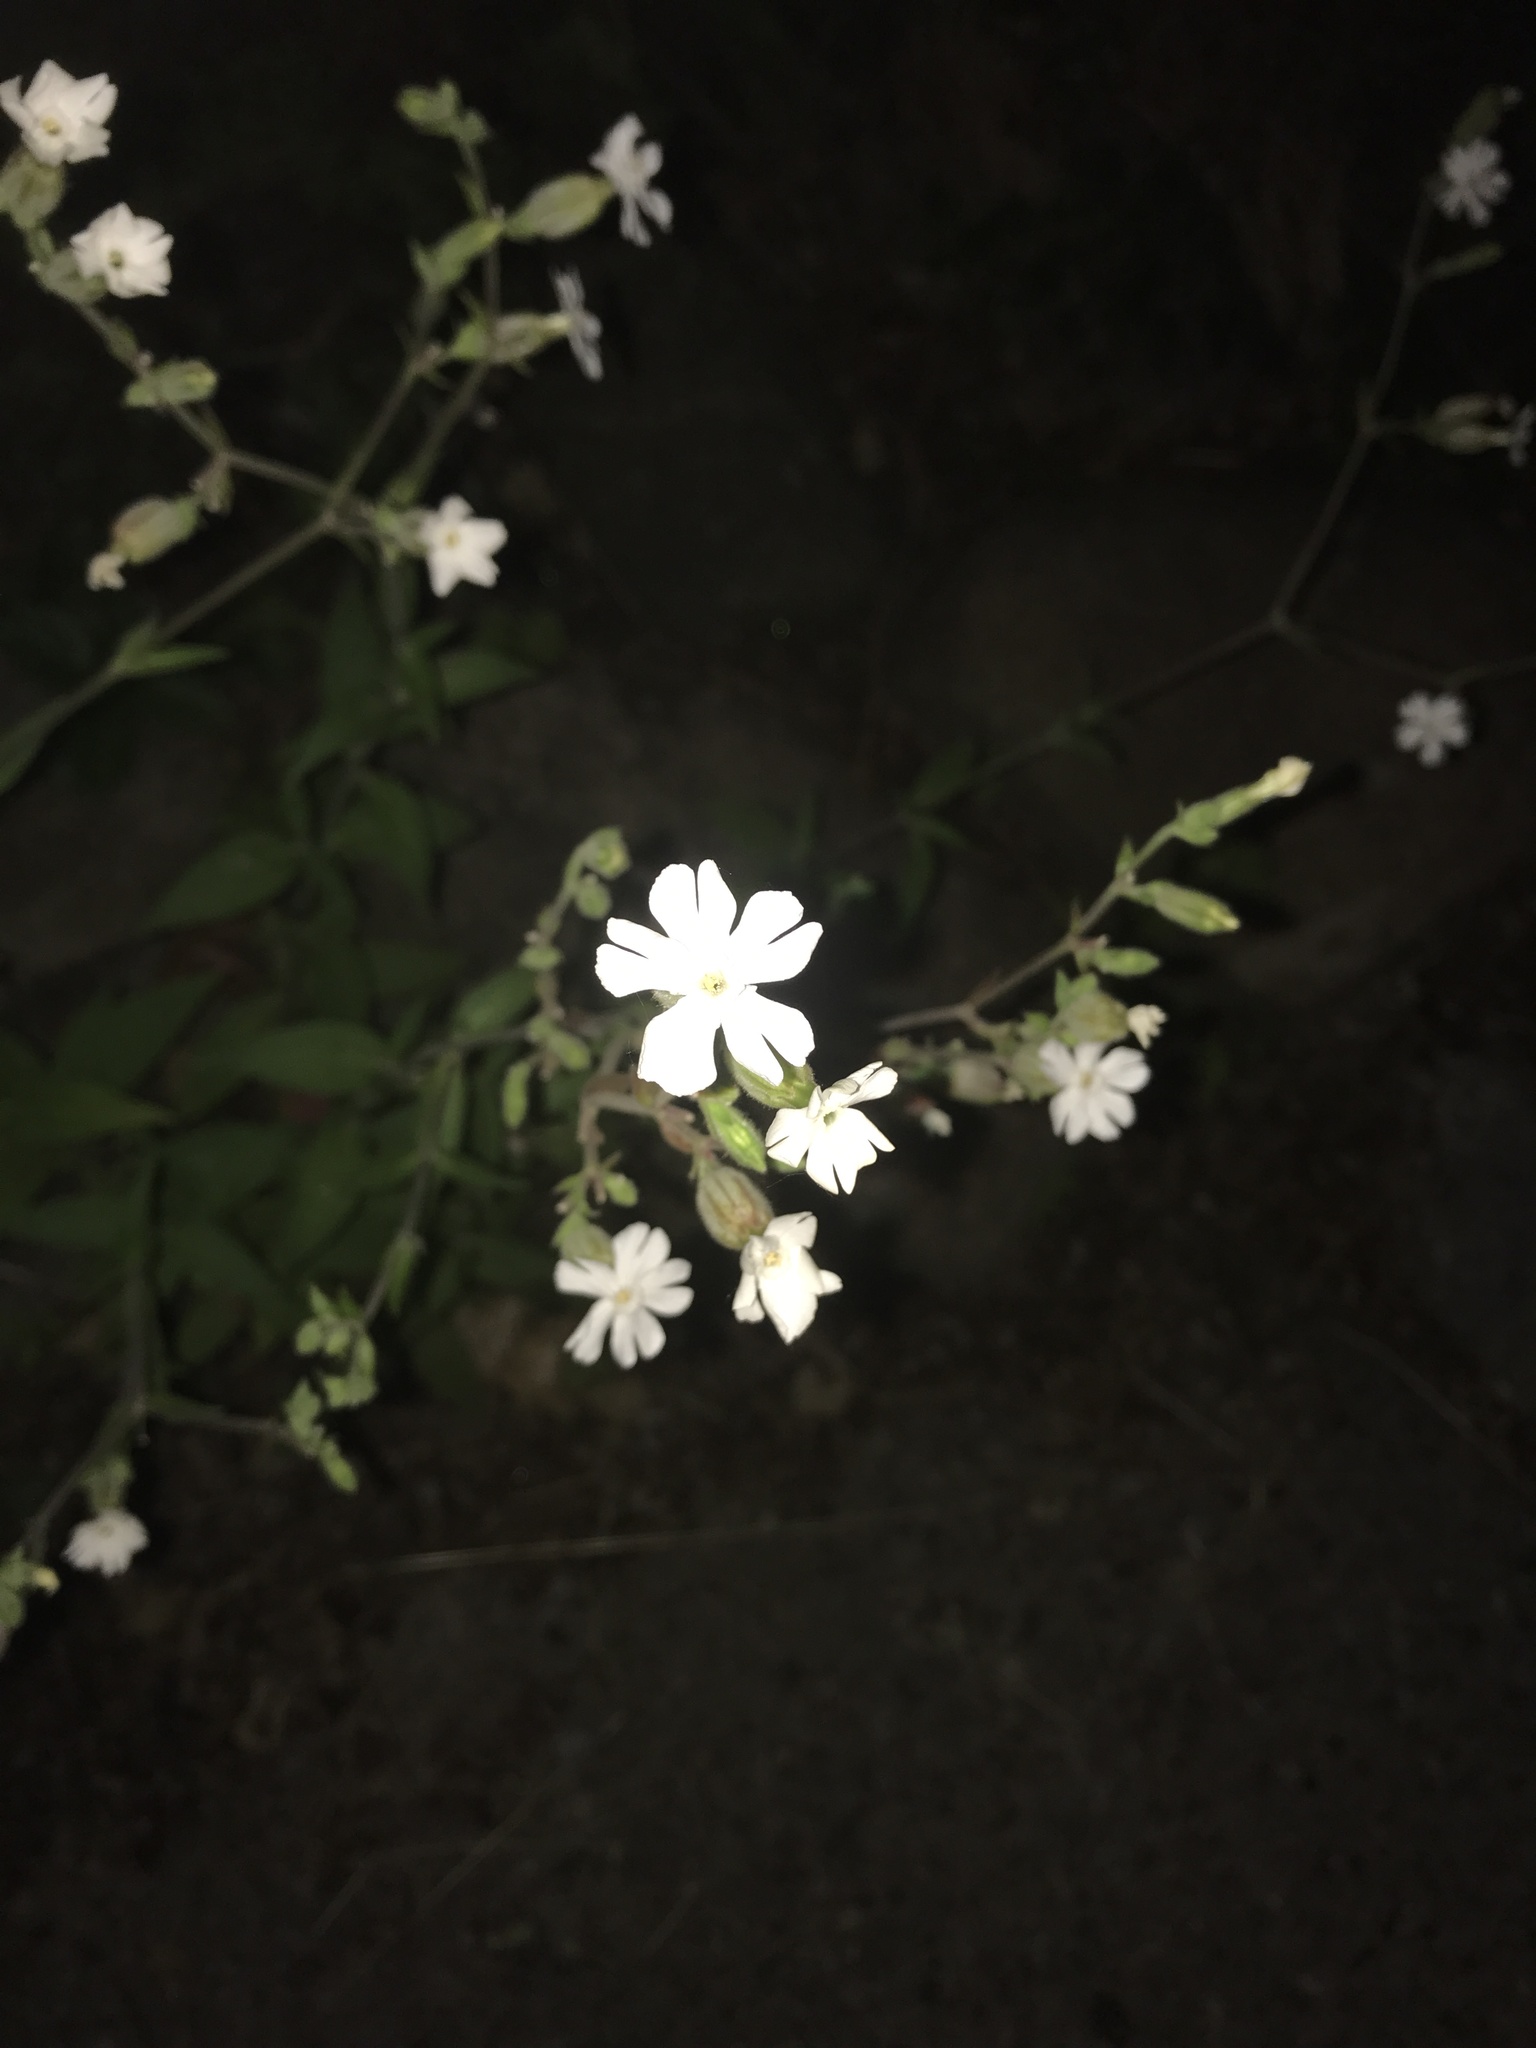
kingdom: Plantae
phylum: Tracheophyta
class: Magnoliopsida
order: Caryophyllales
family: Caryophyllaceae
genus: Silene
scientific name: Silene latifolia
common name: White campion
